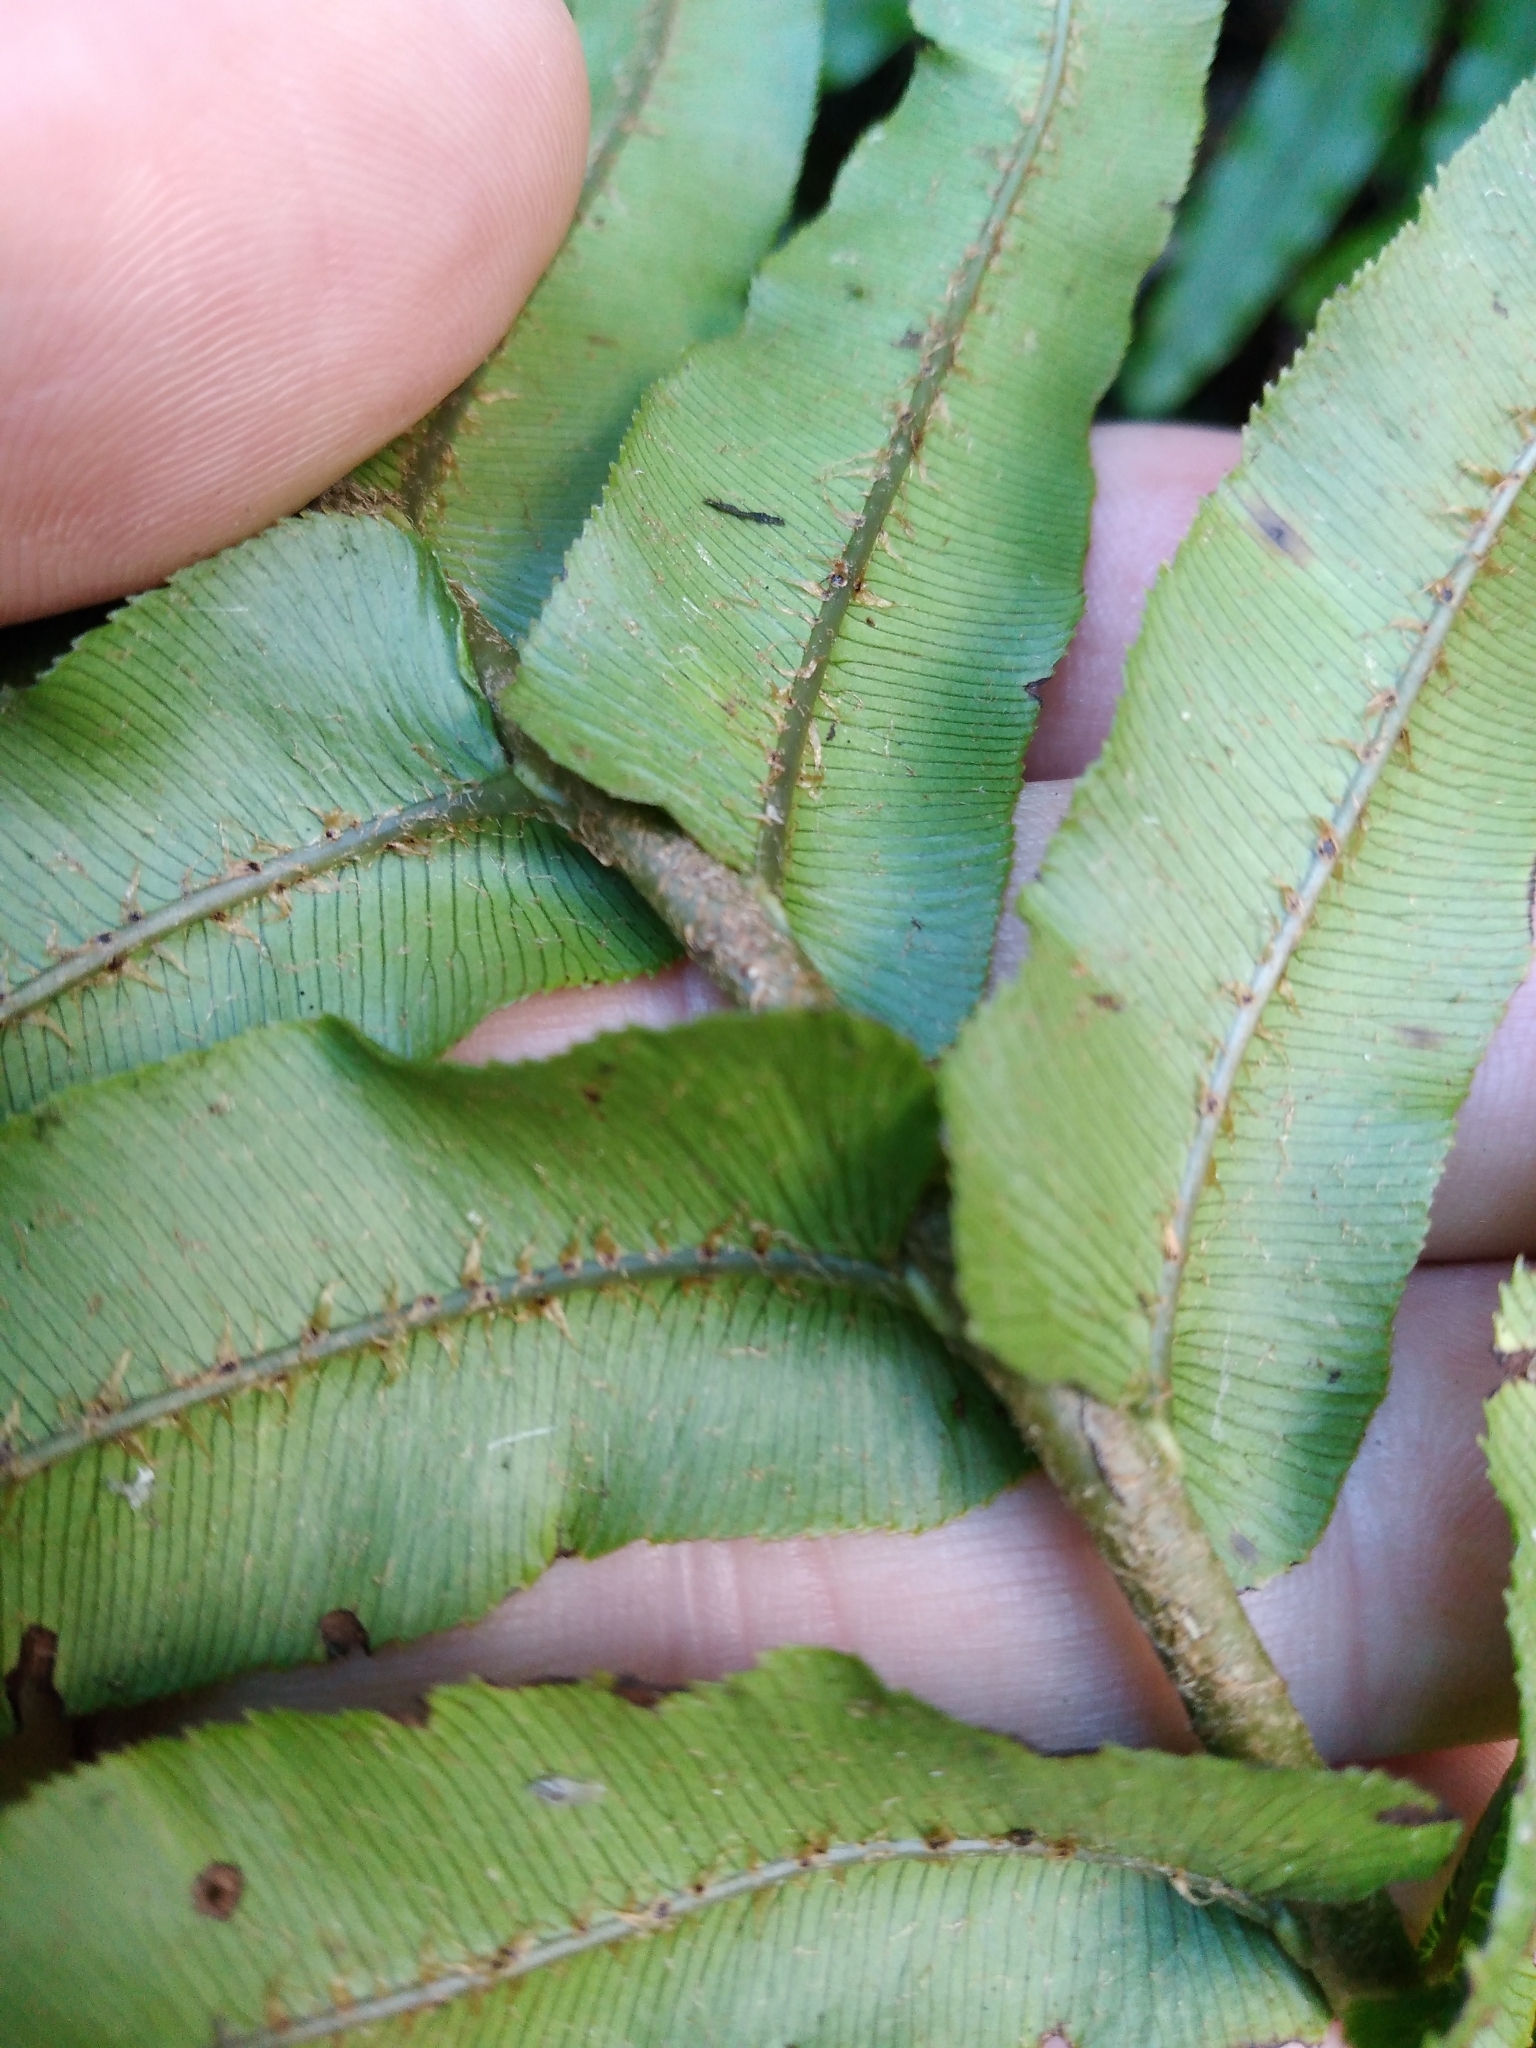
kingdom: Plantae
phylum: Tracheophyta
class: Polypodiopsida
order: Polypodiales
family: Blechnaceae
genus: Parablechnum
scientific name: Parablechnum novae-zelandiae
